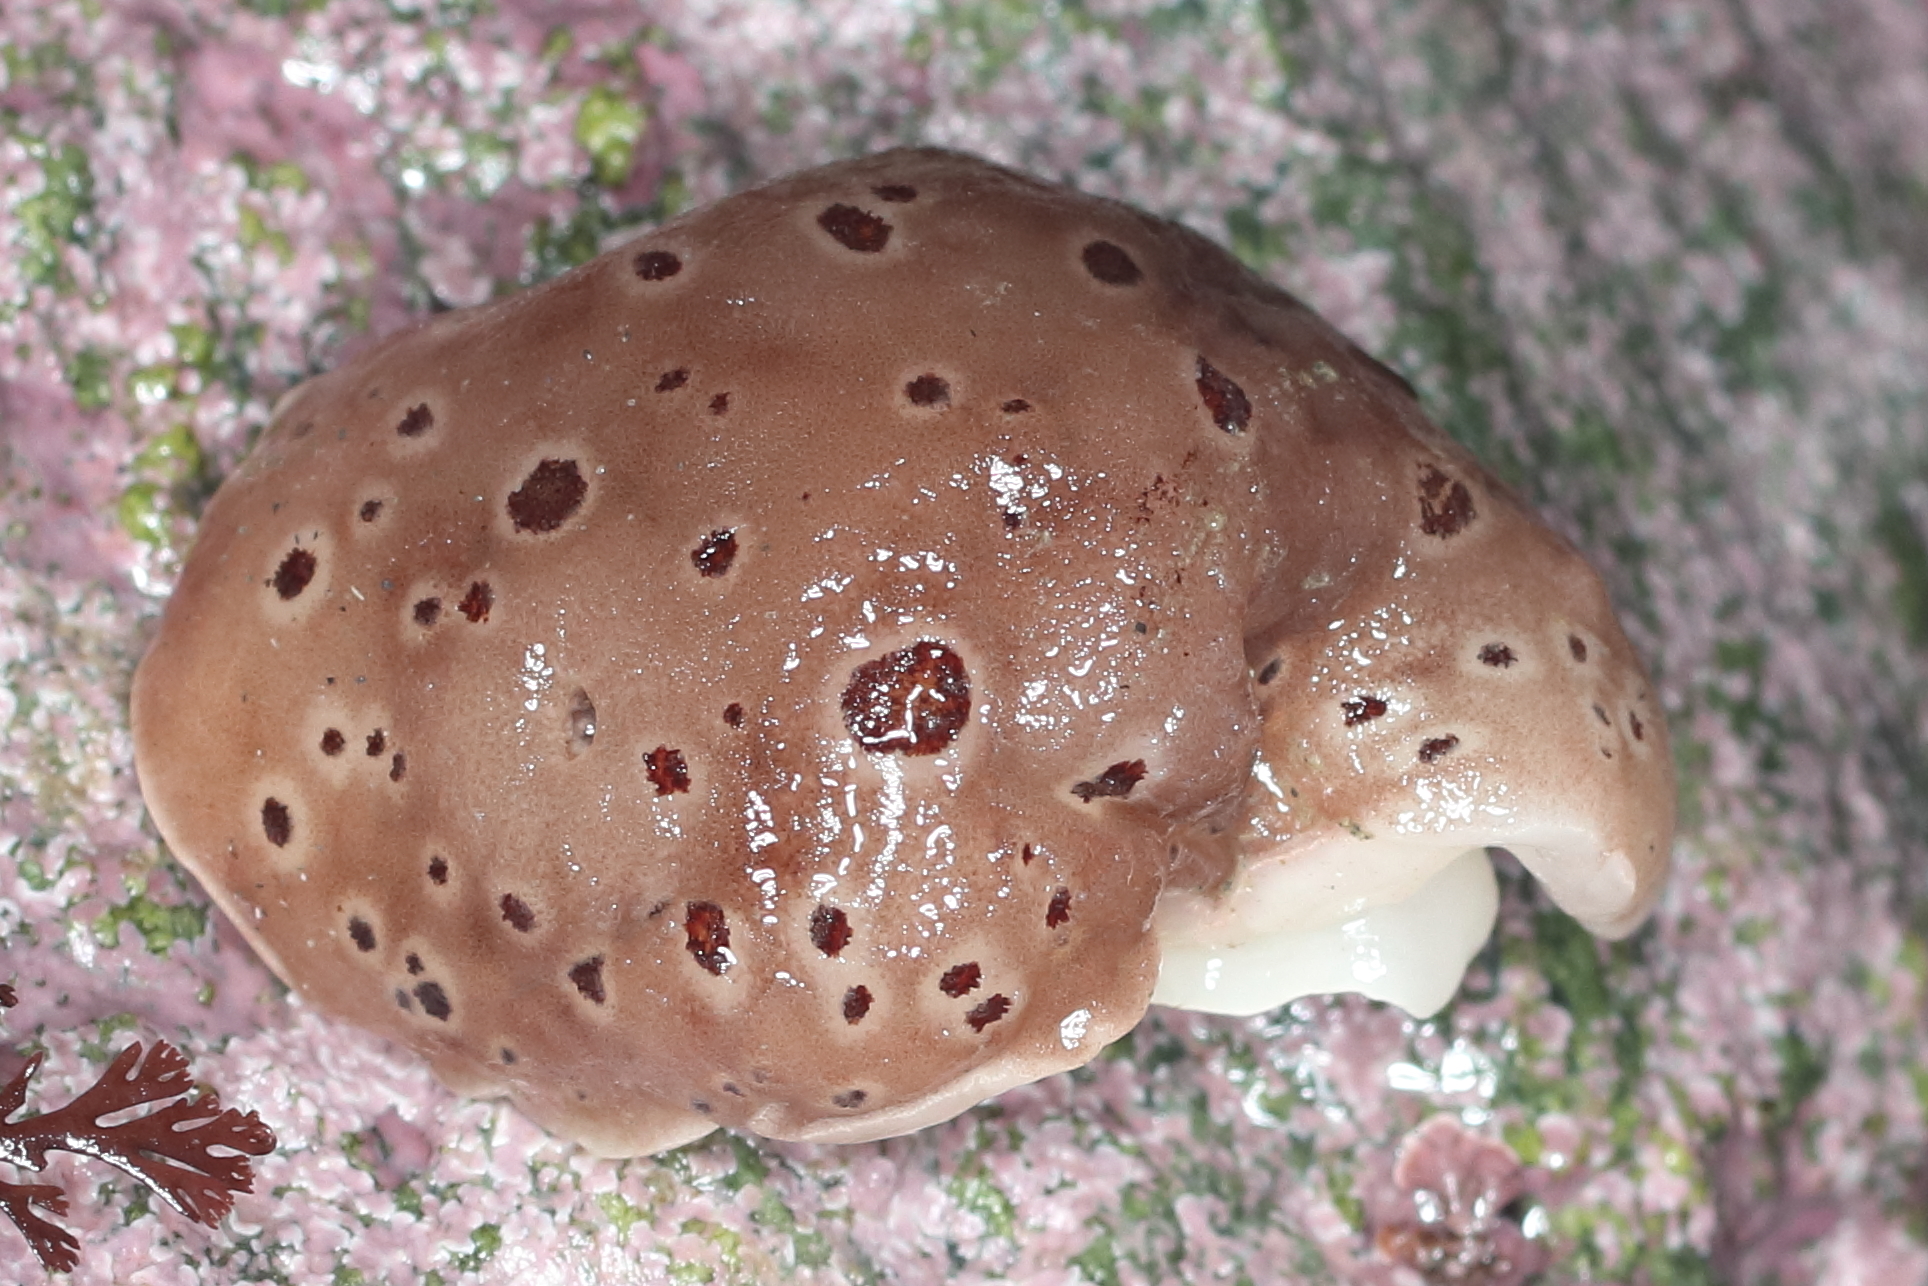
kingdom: Animalia
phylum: Mollusca
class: Gastropoda
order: Nudibranchia
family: Discodorididae
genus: Diaulula
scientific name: Diaulula odonoghuei
